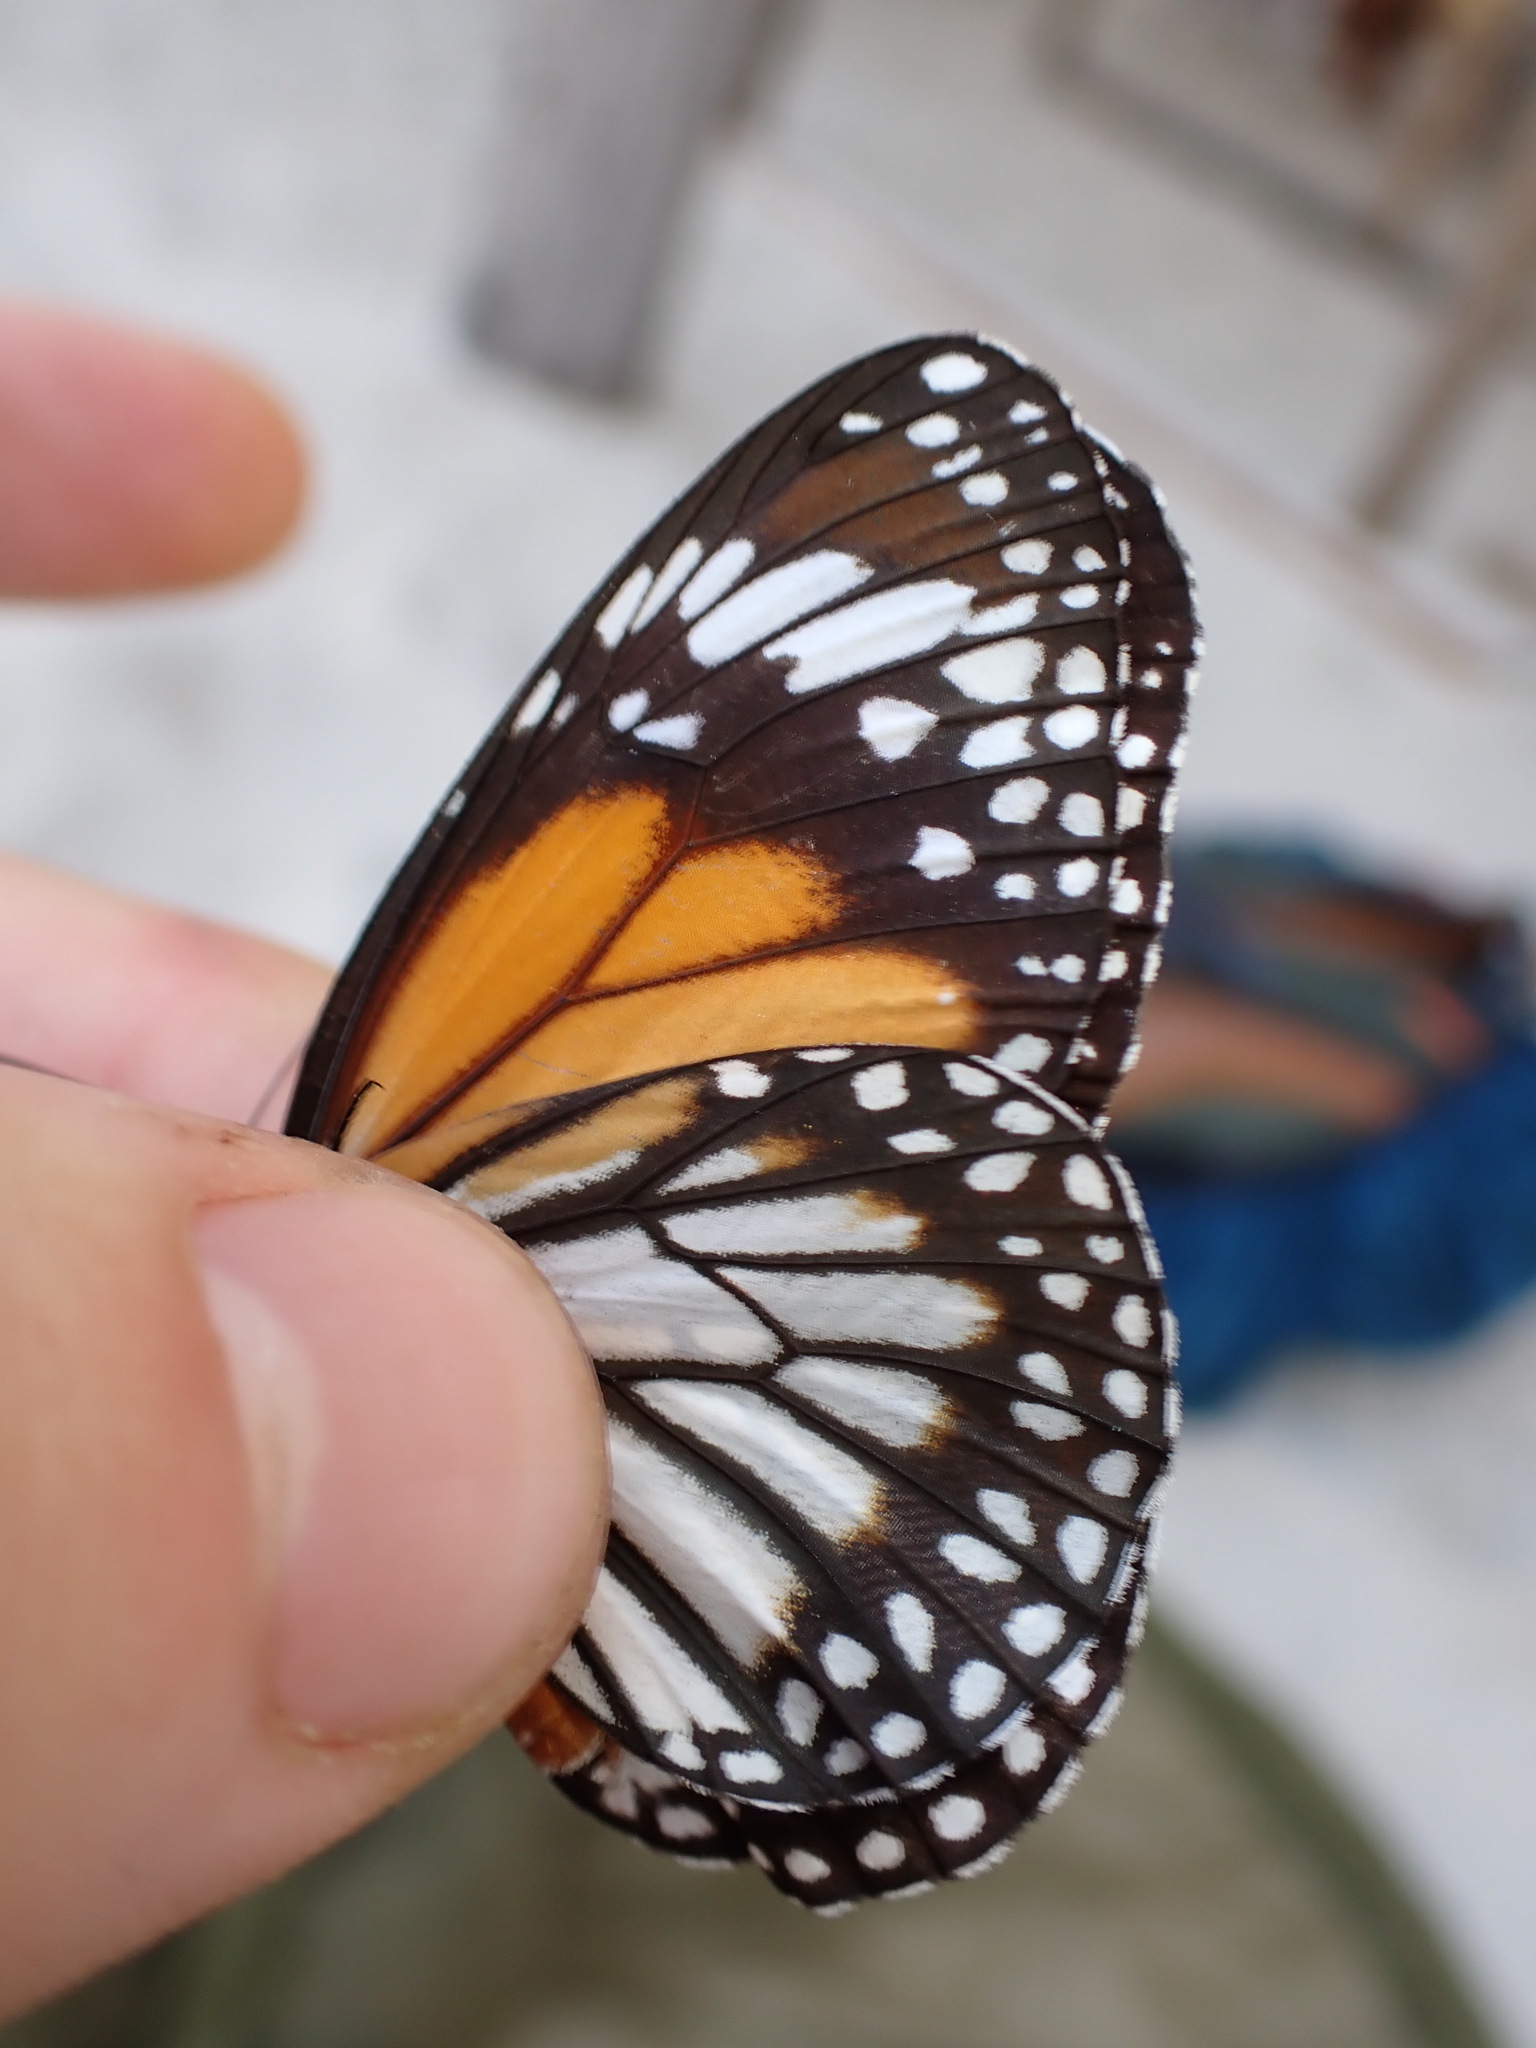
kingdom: Animalia
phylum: Arthropoda
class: Insecta
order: Lepidoptera
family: Nymphalidae
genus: Danaus
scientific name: Danaus melanippus
